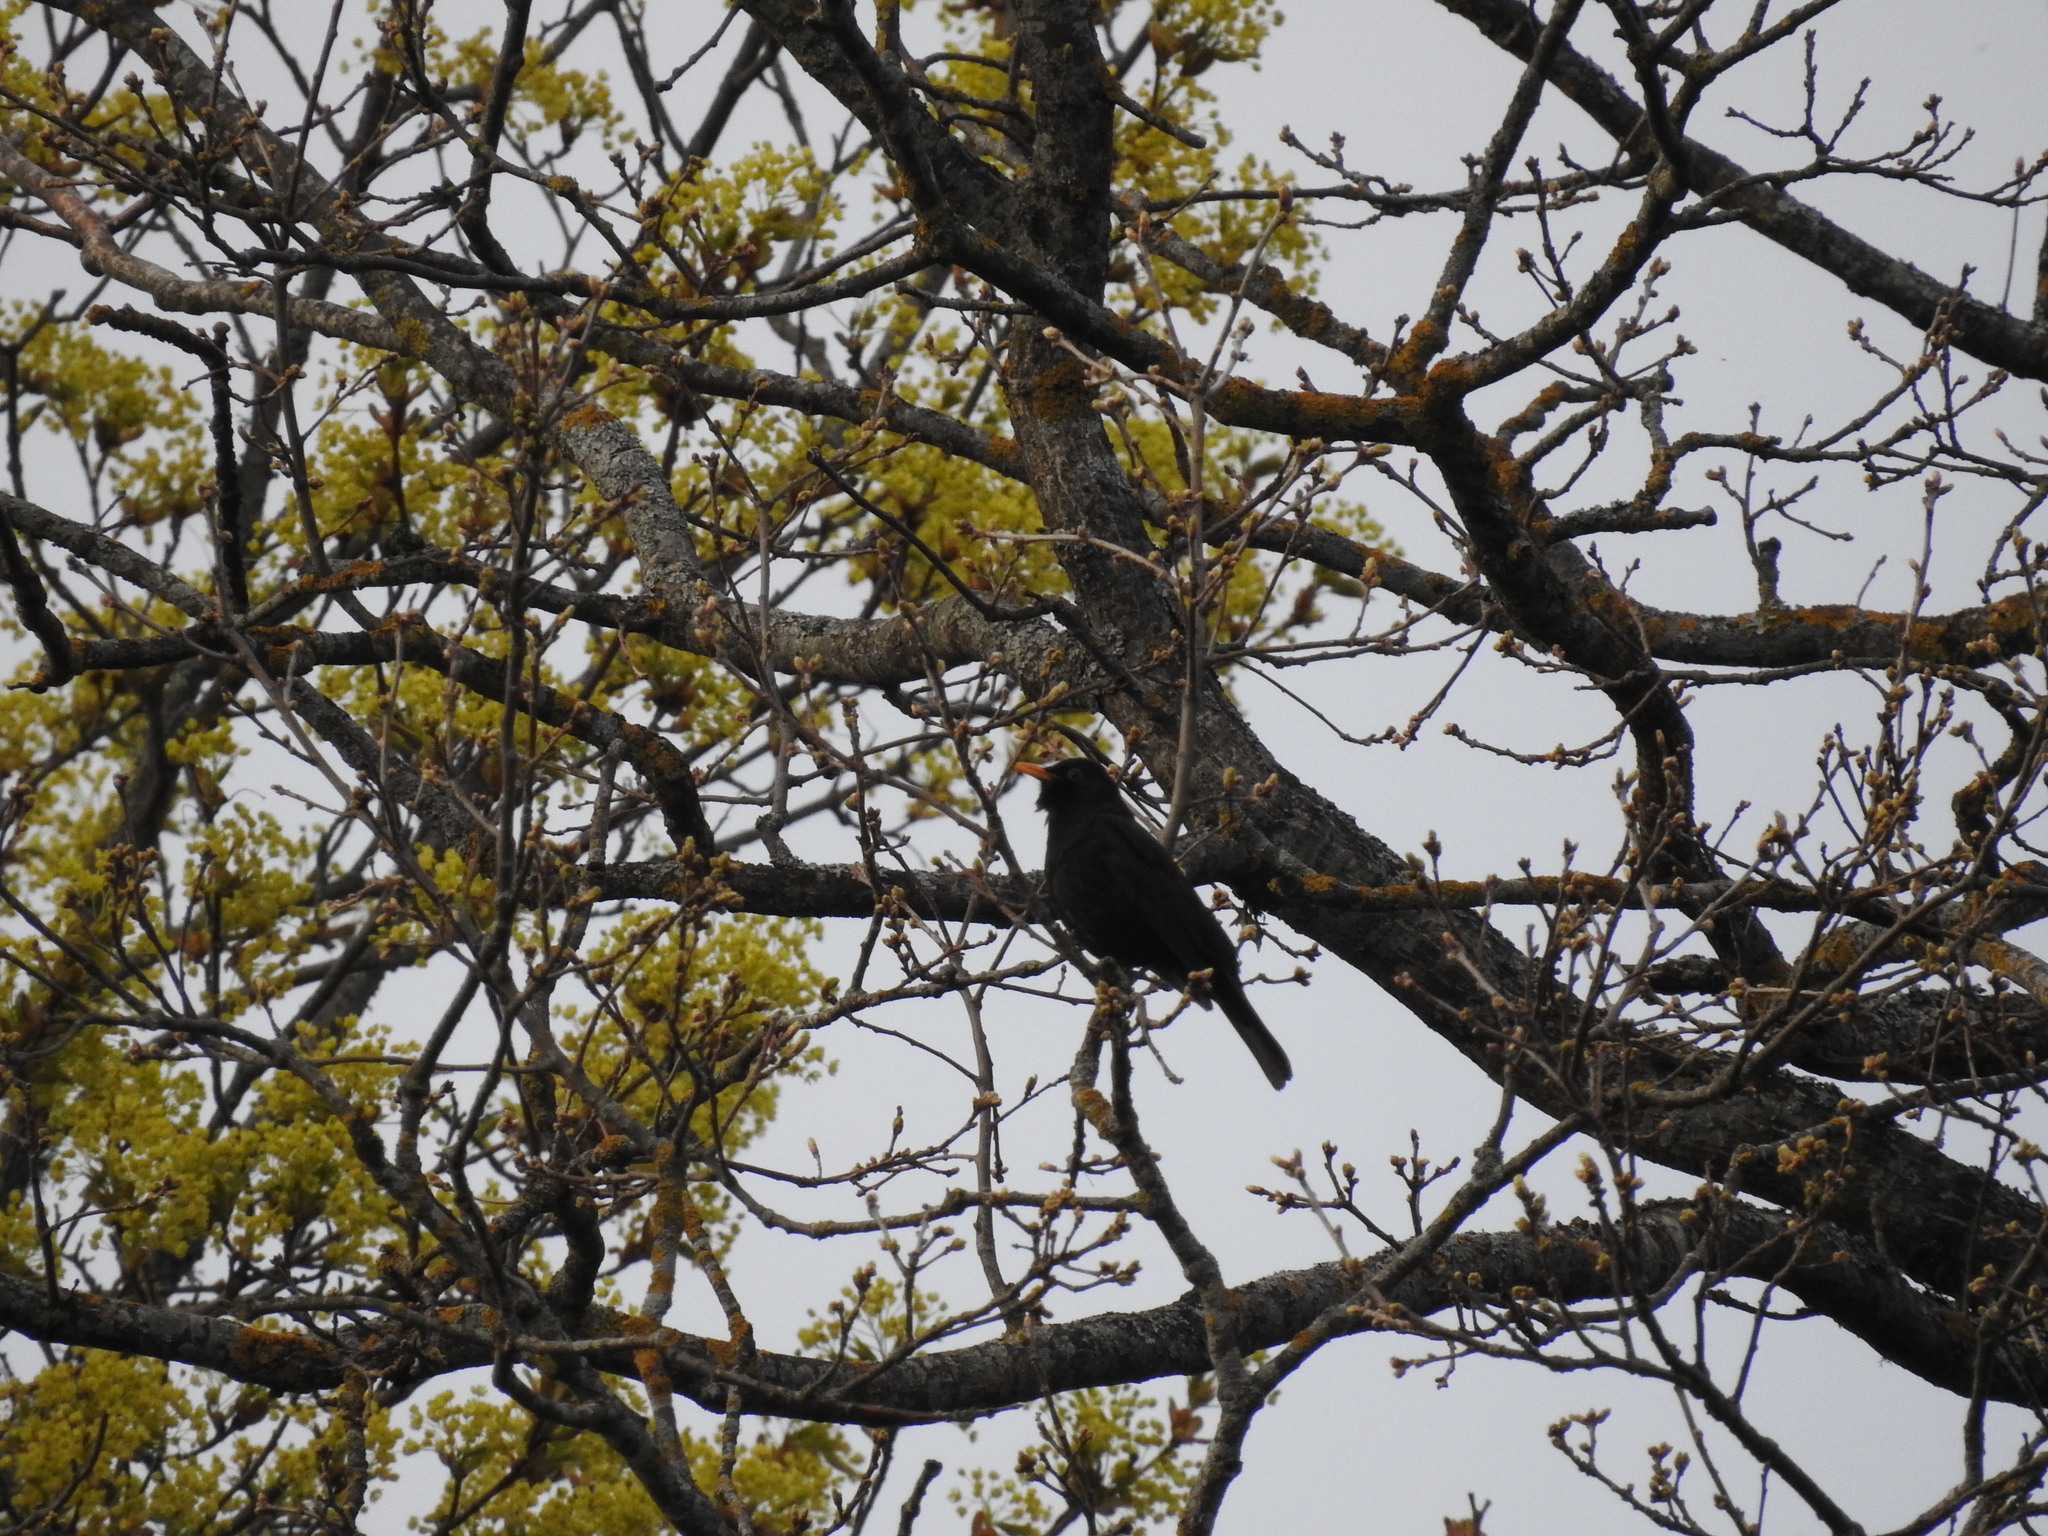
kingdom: Animalia
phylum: Chordata
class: Aves
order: Passeriformes
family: Turdidae
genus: Turdus
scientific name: Turdus merula
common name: Common blackbird
